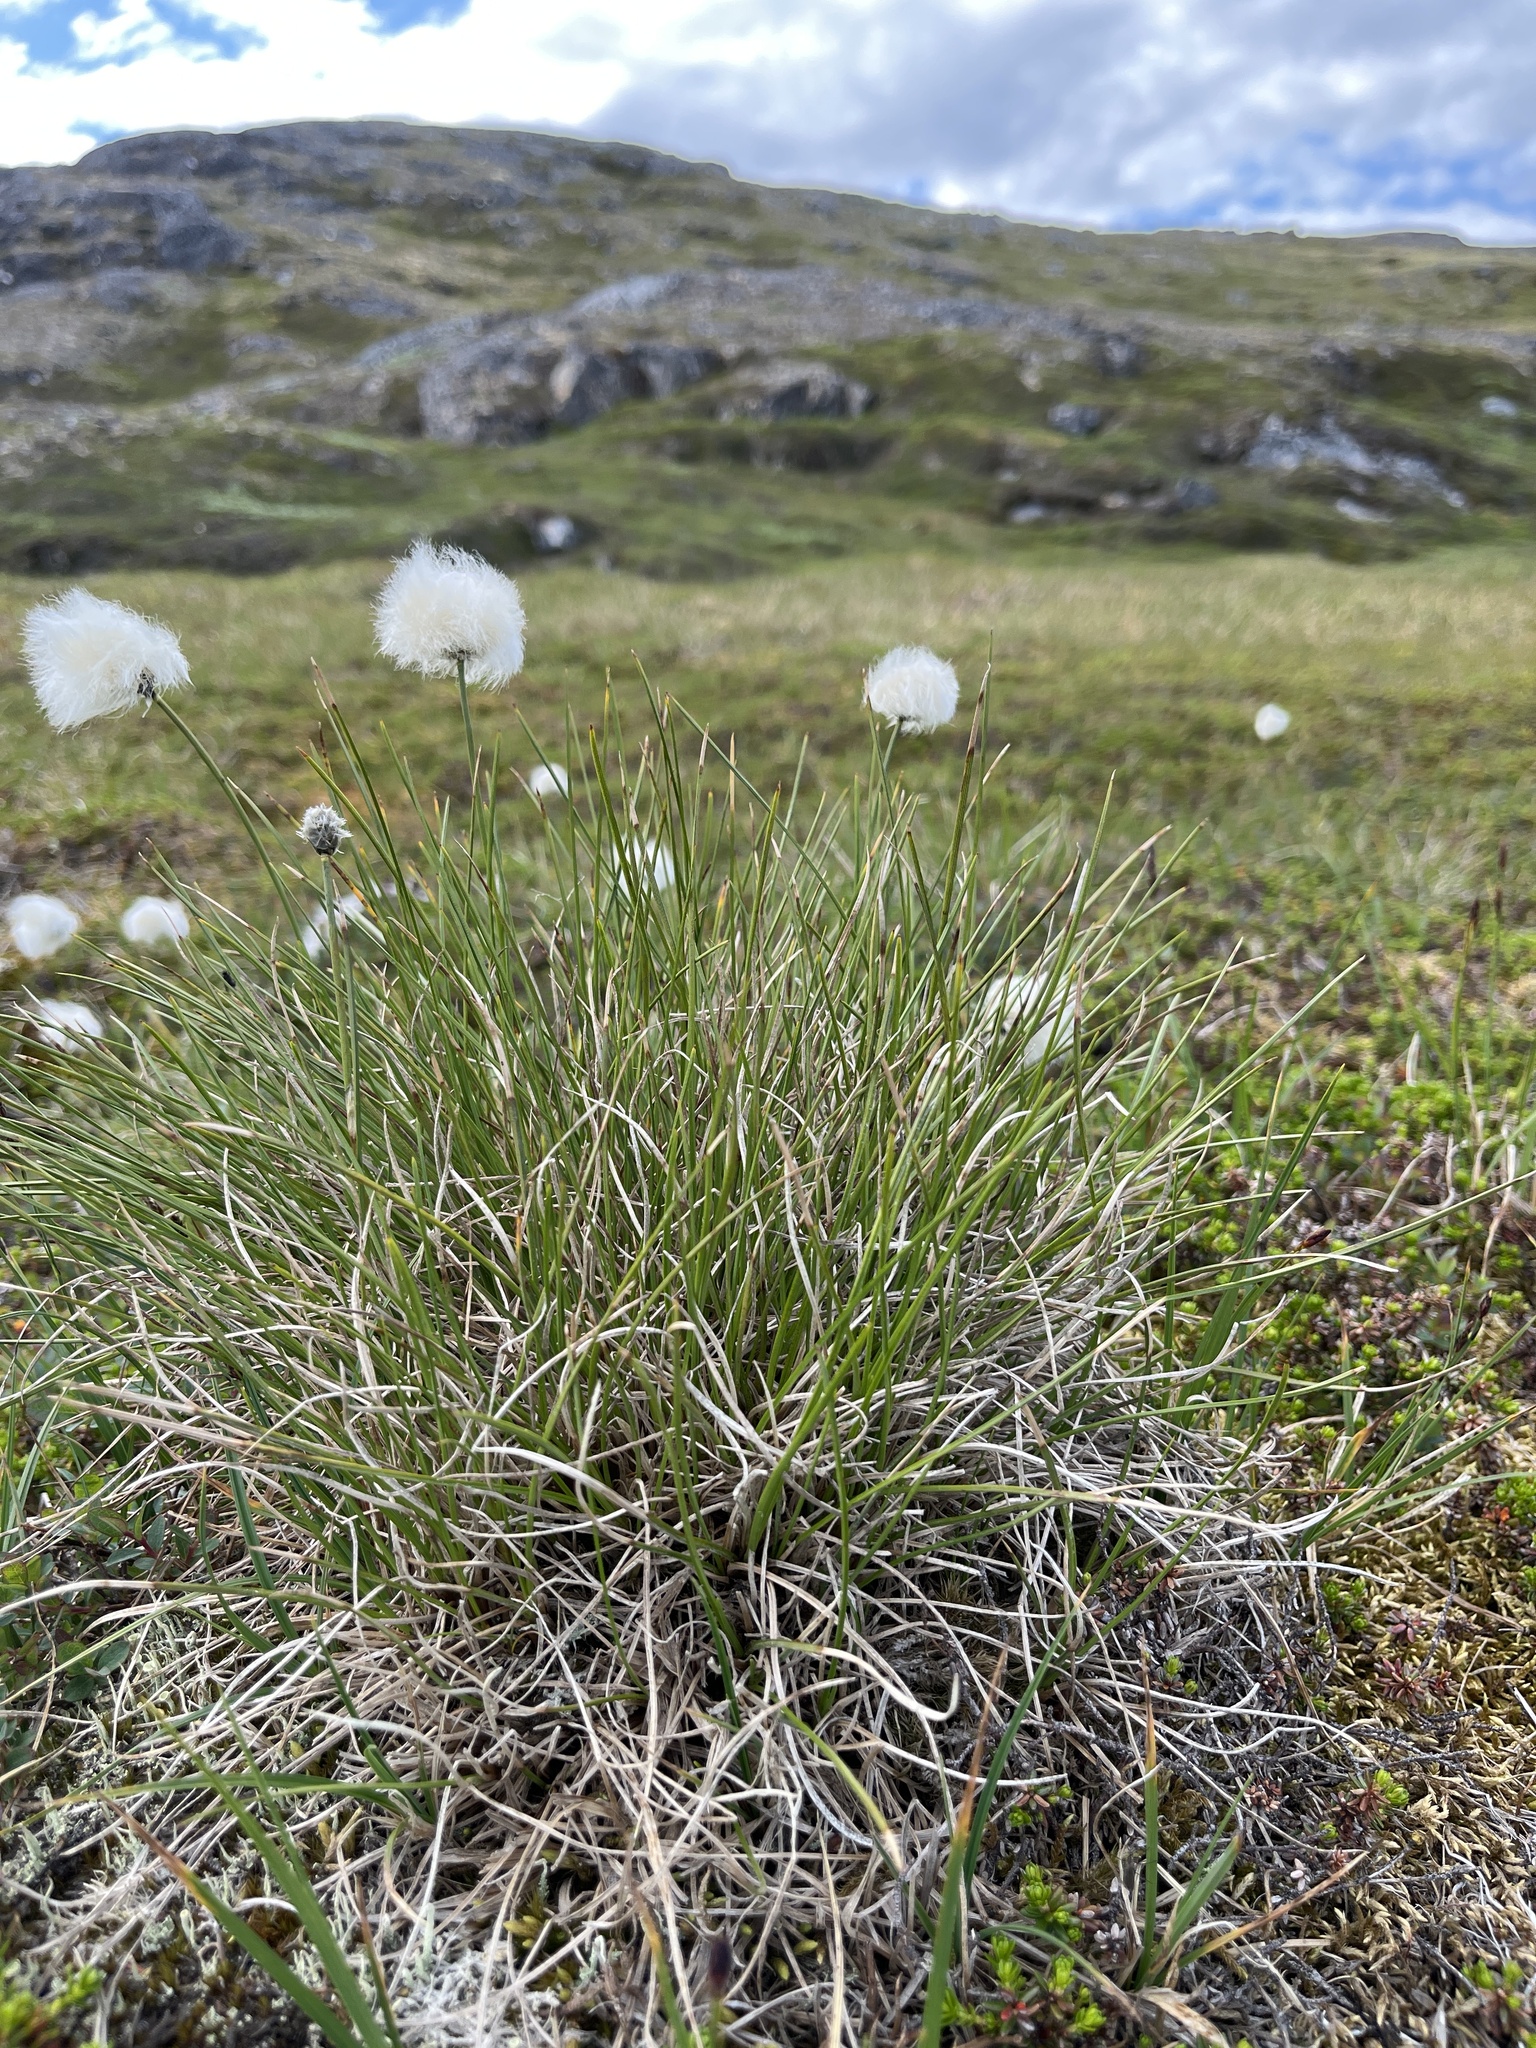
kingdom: Plantae
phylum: Tracheophyta
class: Liliopsida
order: Poales
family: Cyperaceae
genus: Eriophorum
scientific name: Eriophorum vaginatum
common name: Hare's-tail cottongrass
